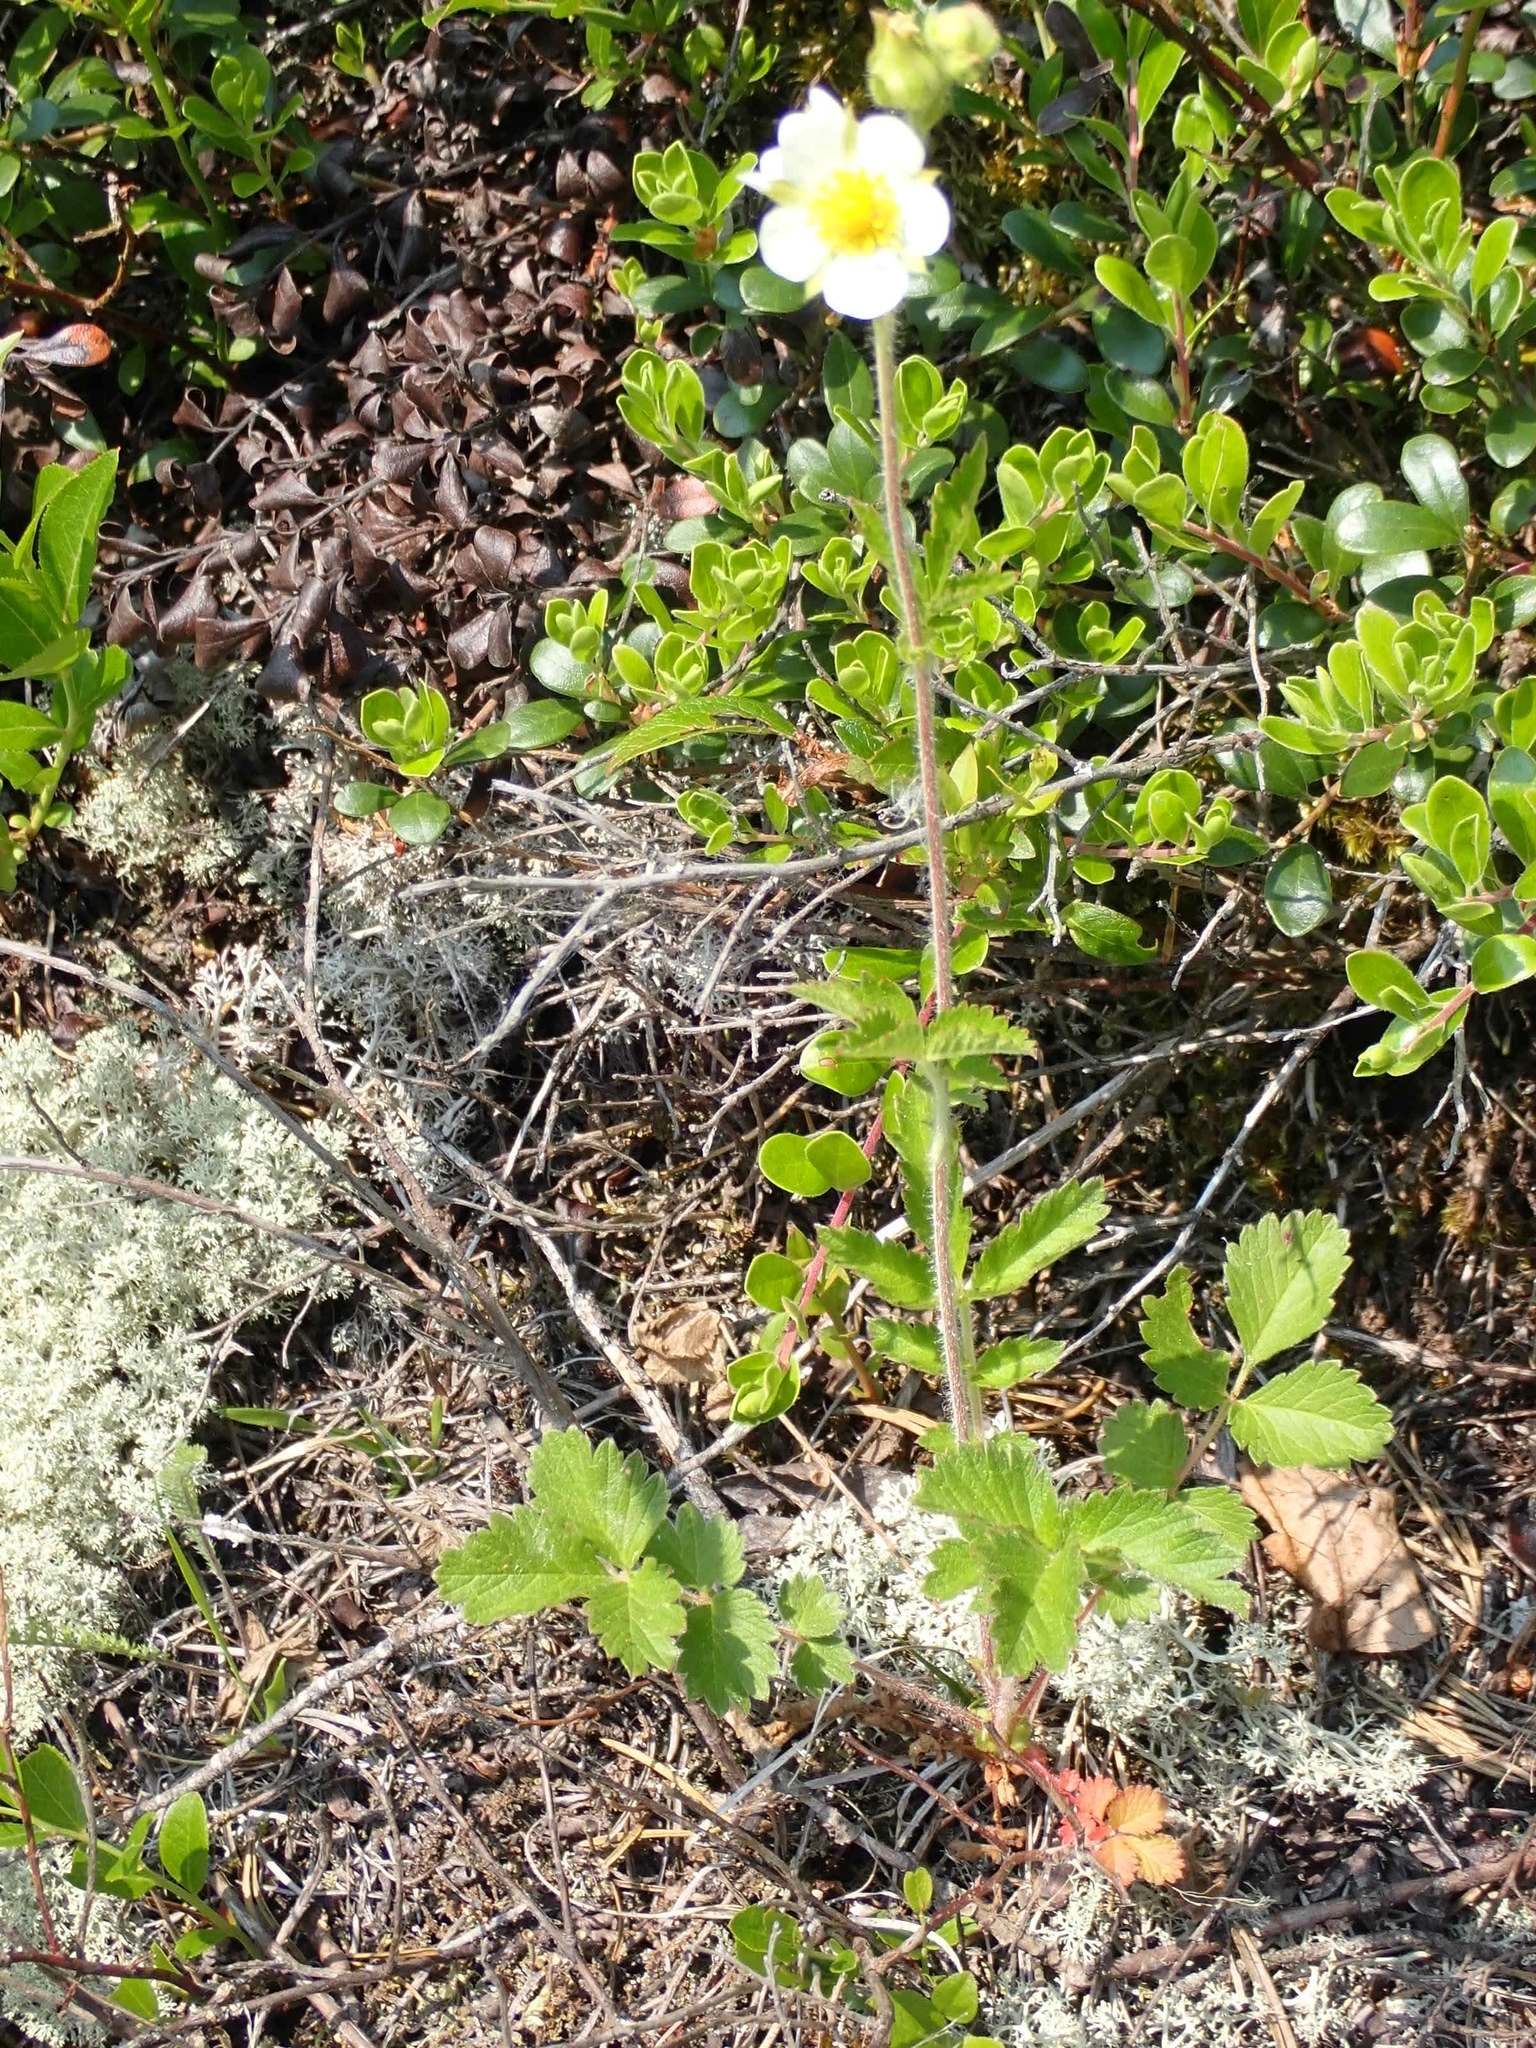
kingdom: Plantae
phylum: Tracheophyta
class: Magnoliopsida
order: Rosales
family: Rosaceae
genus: Drymocallis
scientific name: Drymocallis arguta
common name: Tall cinquefoil
